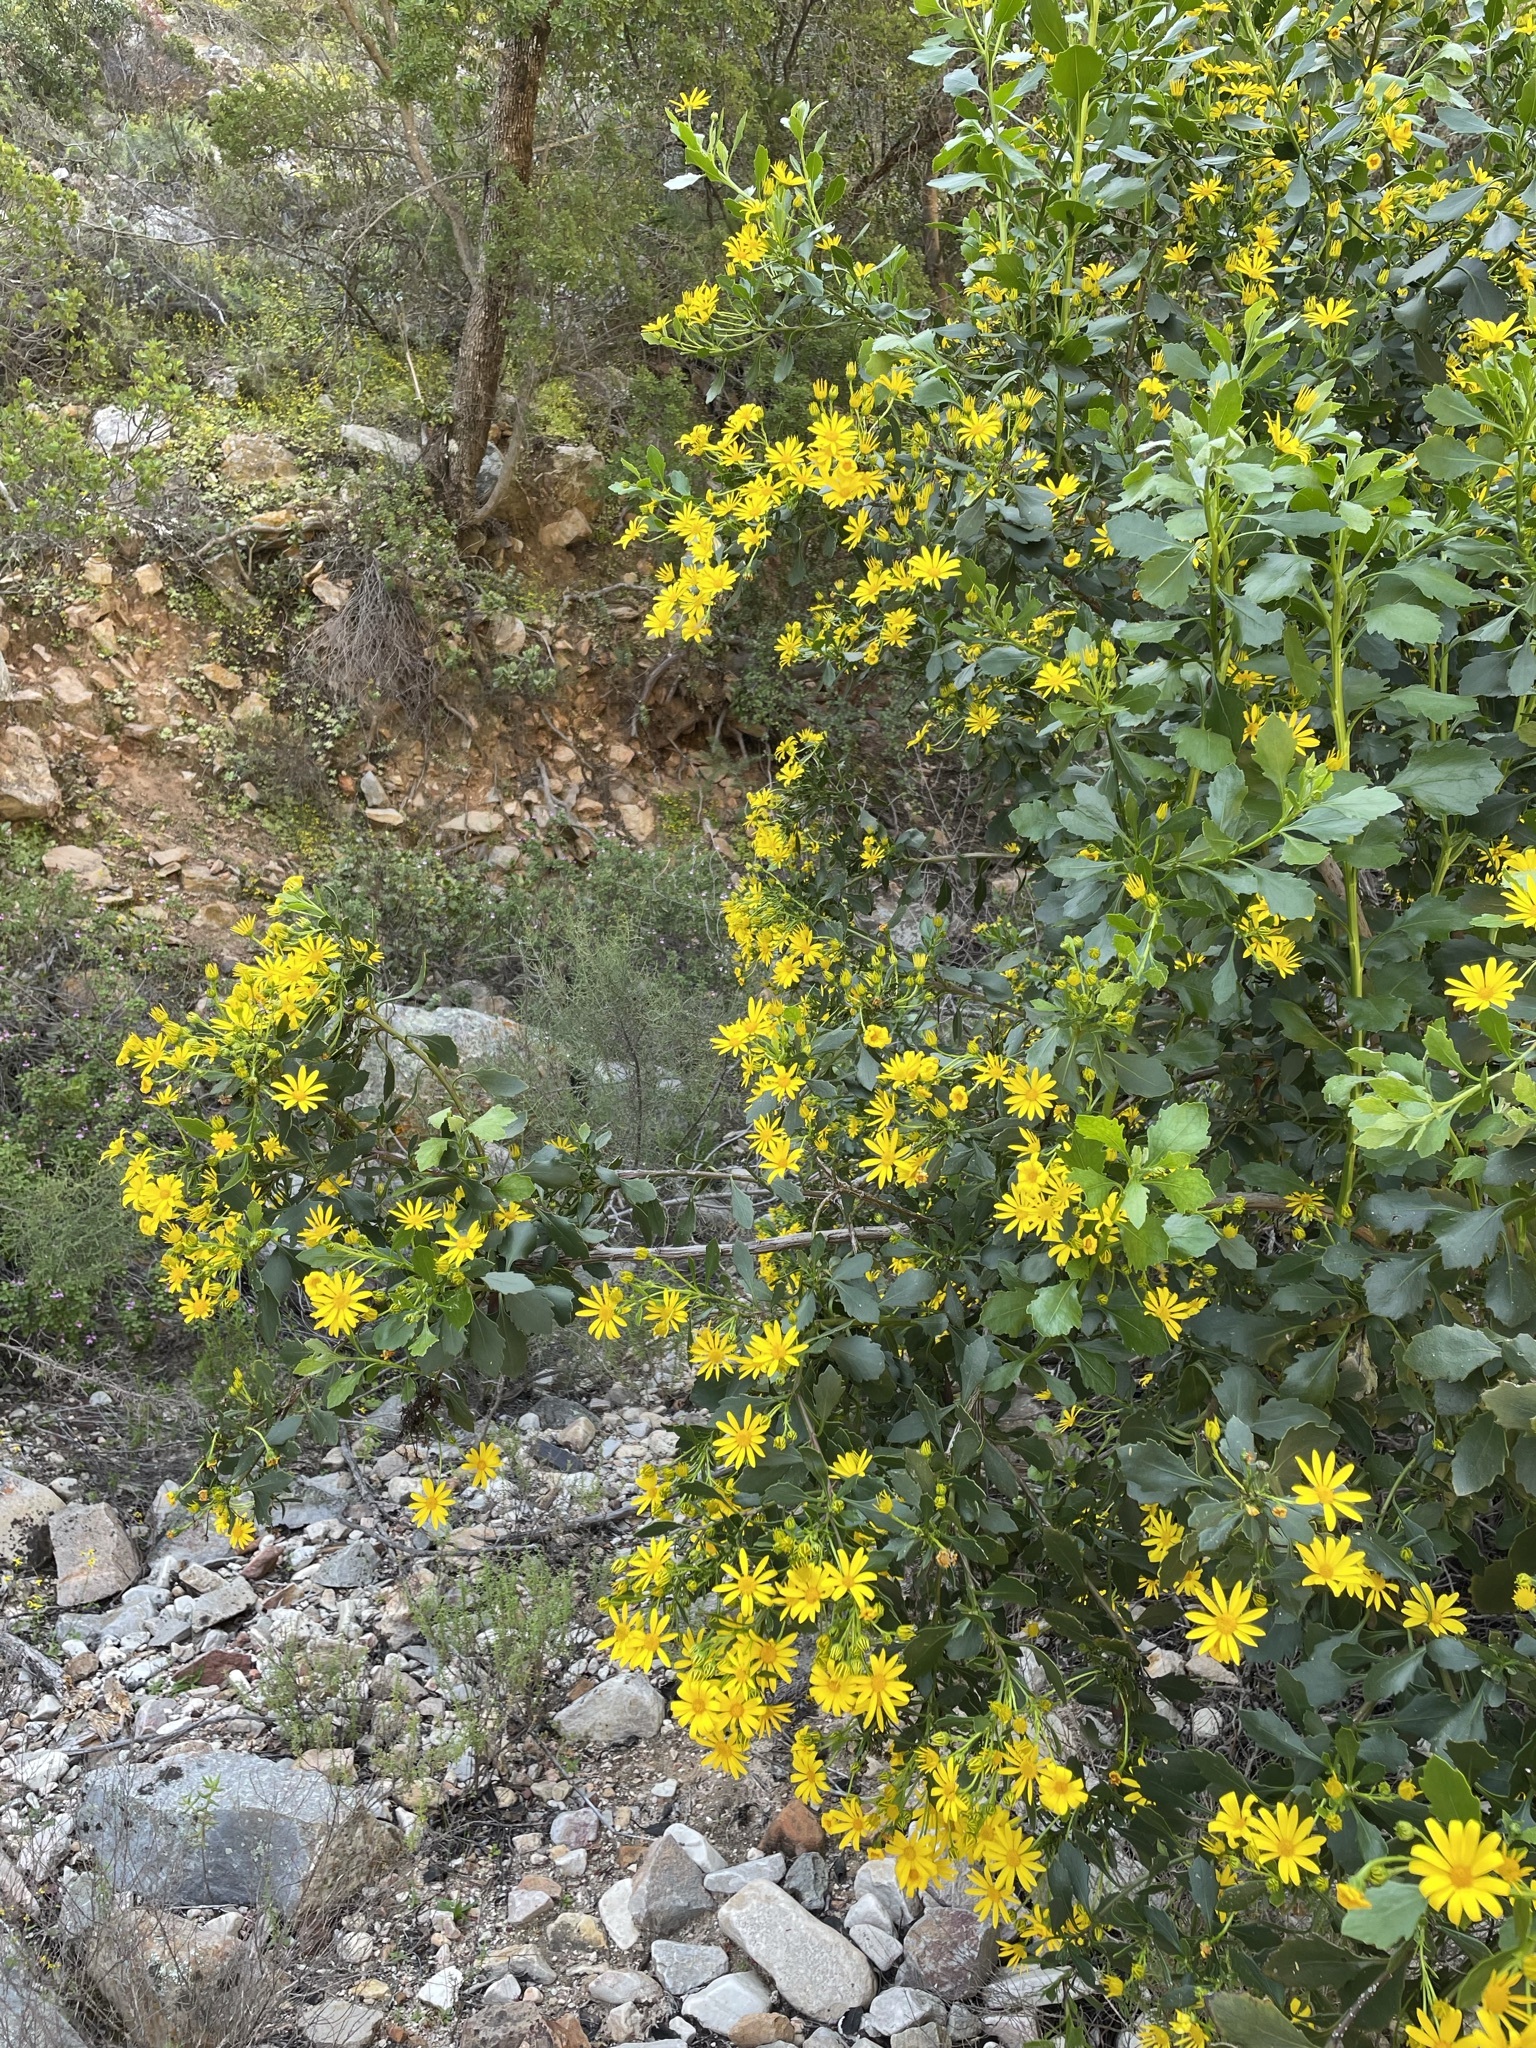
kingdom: Plantae
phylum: Tracheophyta
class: Magnoliopsida
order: Asterales
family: Asteraceae
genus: Osteospermum
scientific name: Osteospermum moniliferum
